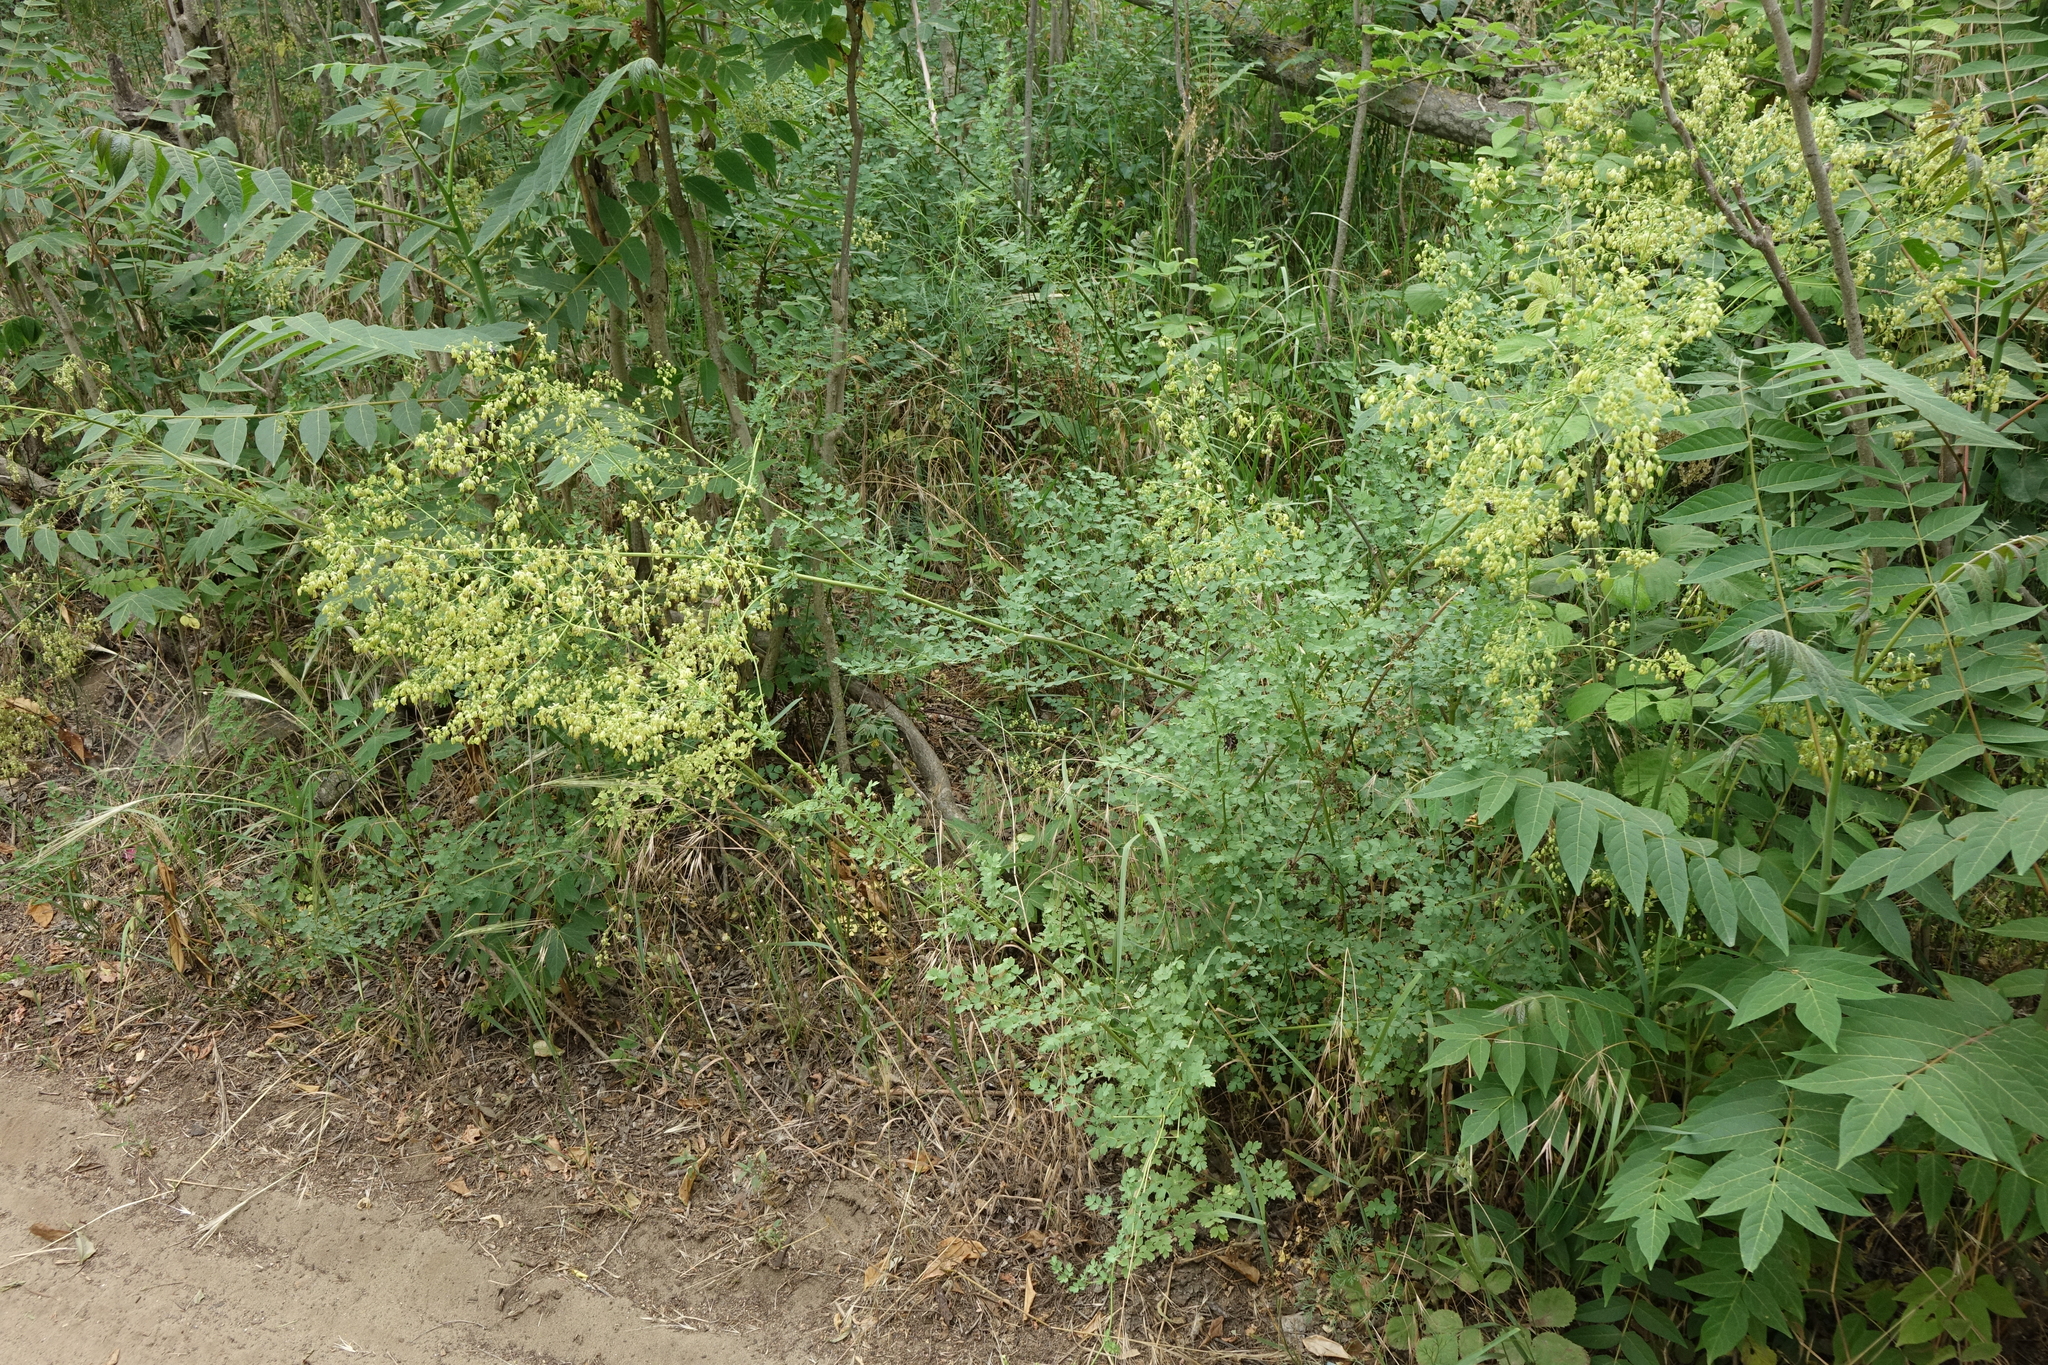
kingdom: Plantae
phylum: Tracheophyta
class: Magnoliopsida
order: Ranunculales
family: Ranunculaceae
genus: Thalictrum
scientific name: Thalictrum minus
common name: Lesser meadow-rue
